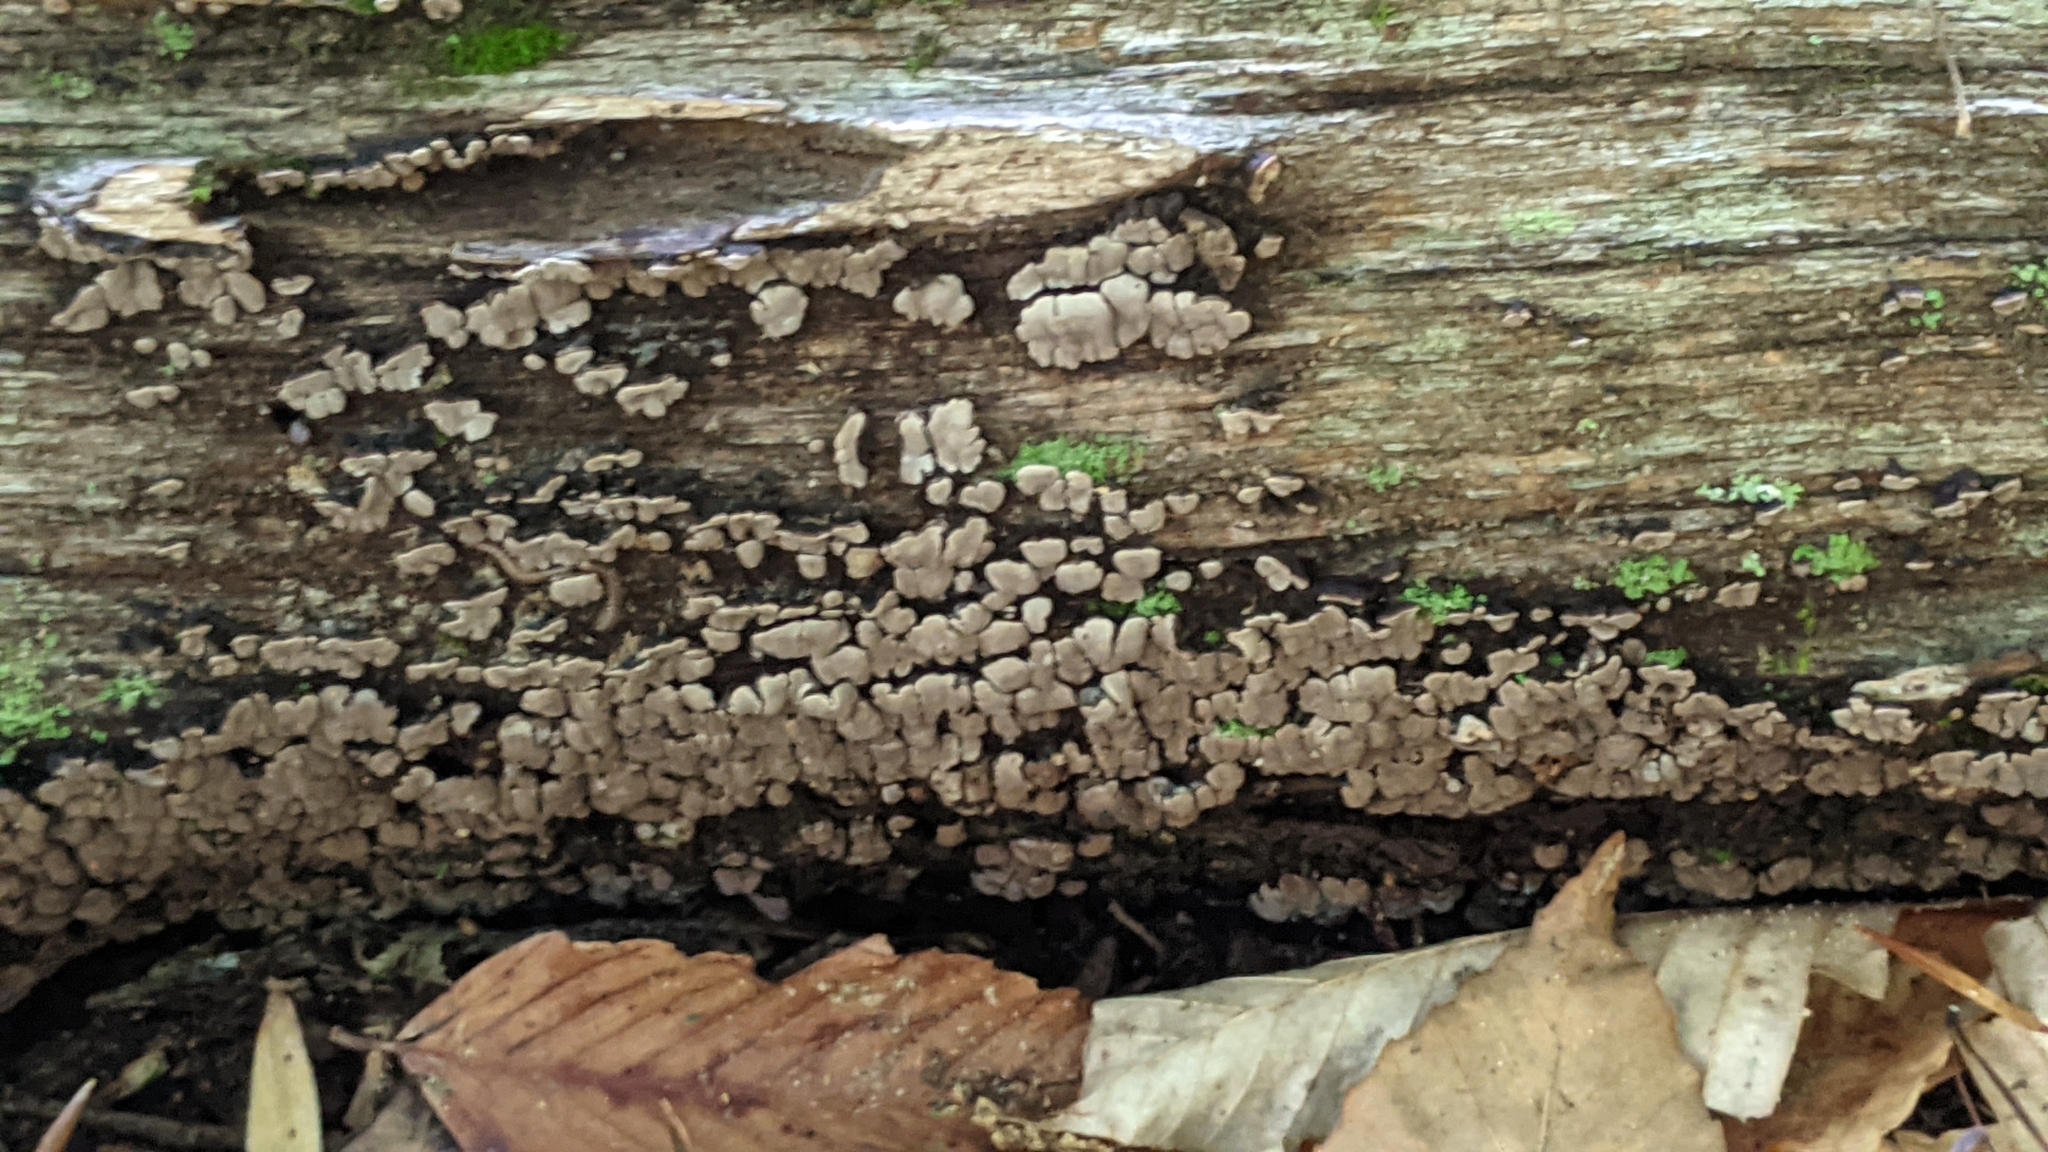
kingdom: Fungi
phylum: Basidiomycota
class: Agaricomycetes
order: Russulales
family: Stereaceae
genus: Xylobolus
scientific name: Xylobolus frustulatus
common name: Ceramic parchment
